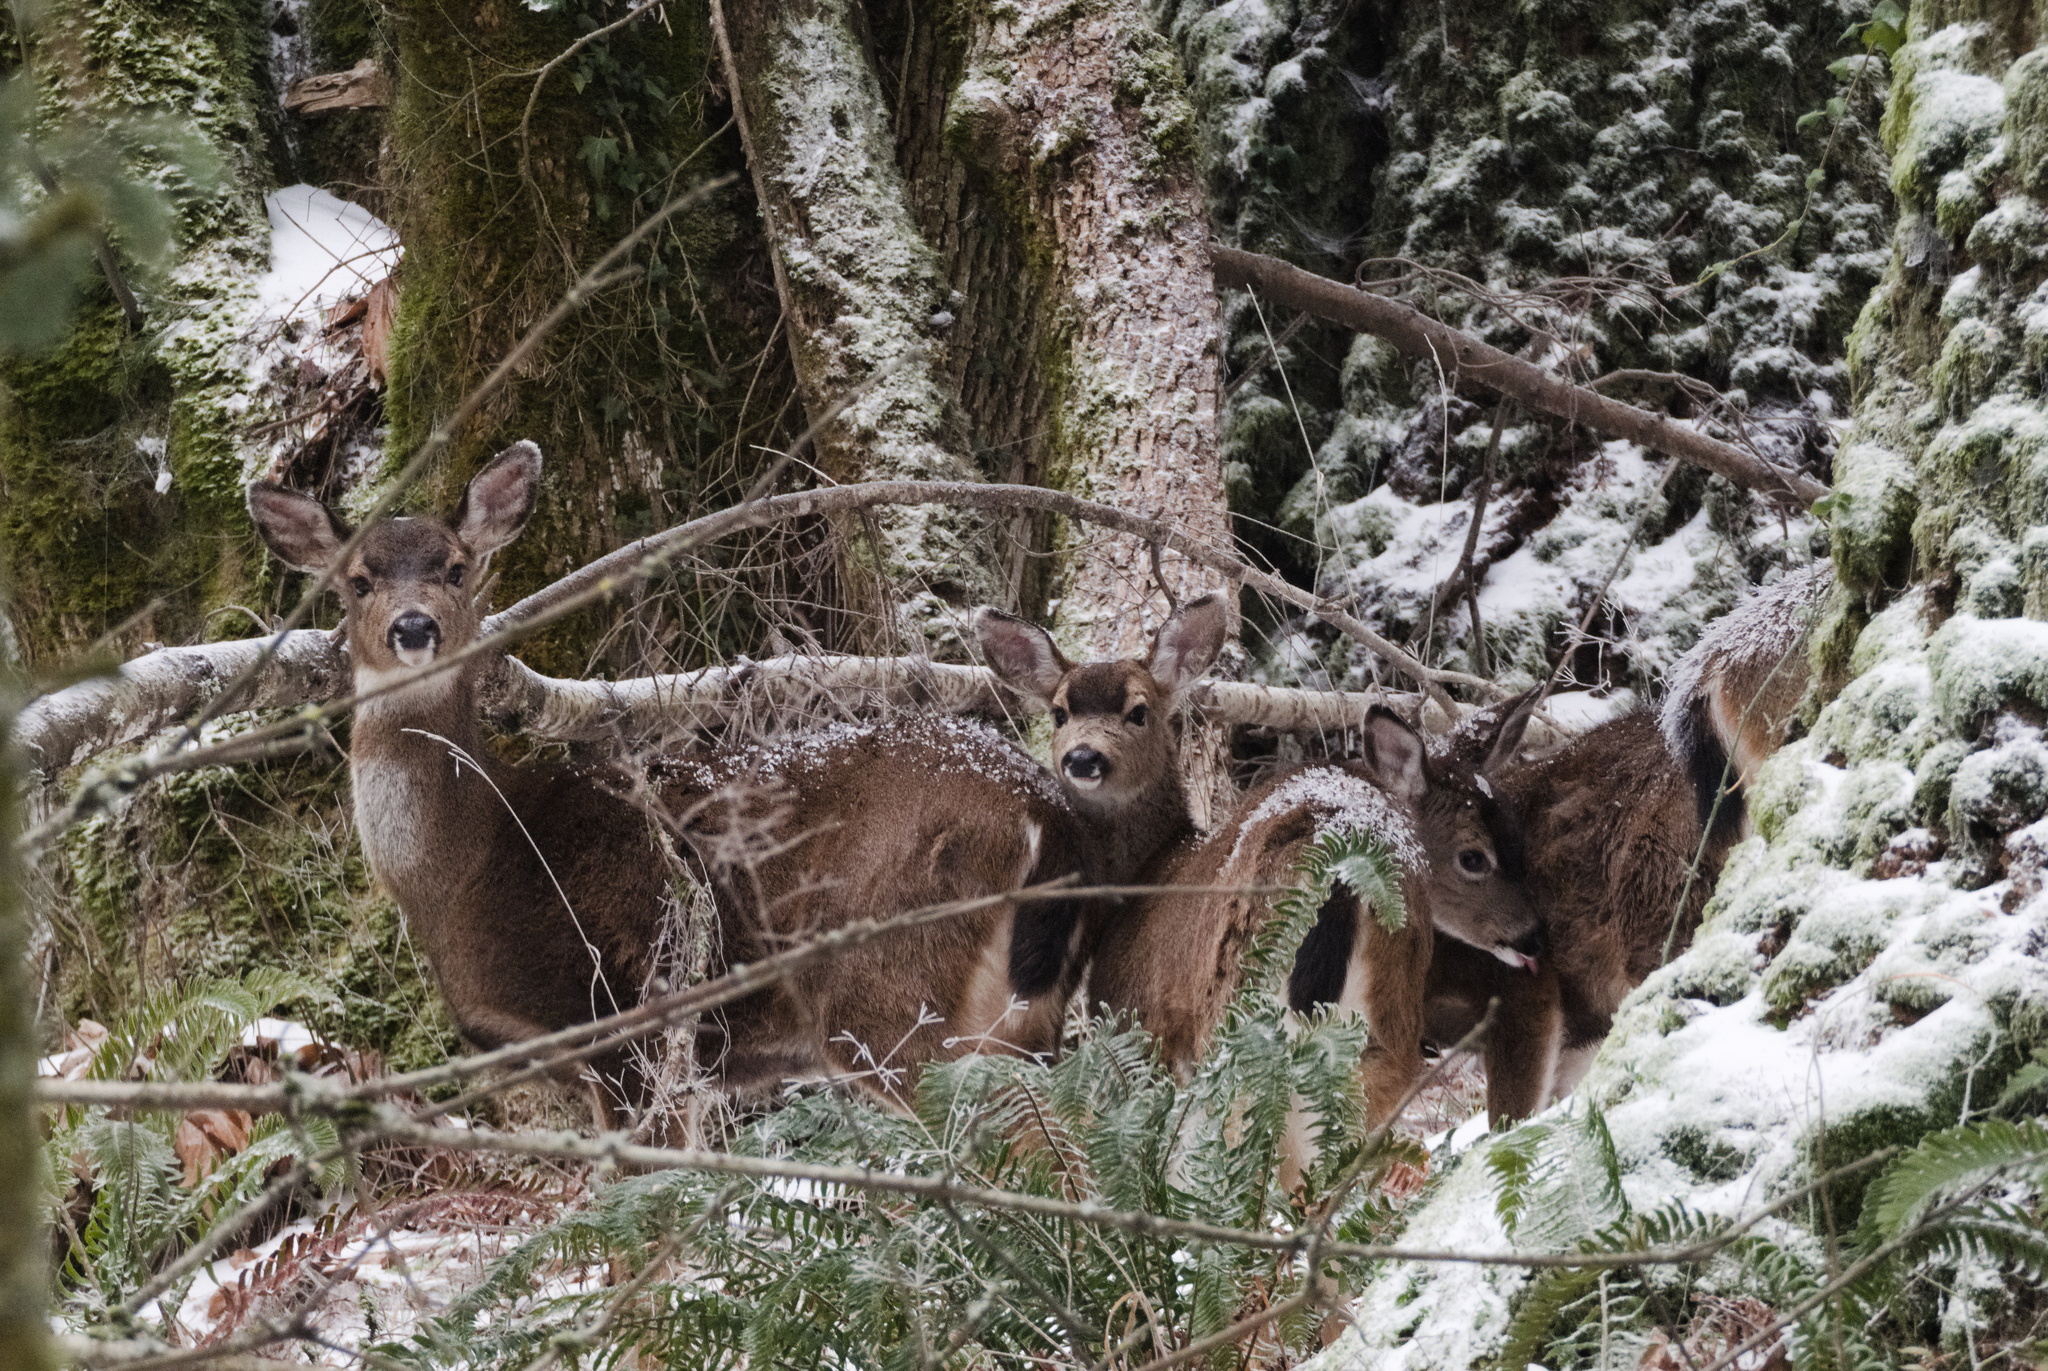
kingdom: Animalia
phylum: Chordata
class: Mammalia
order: Artiodactyla
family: Cervidae
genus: Odocoileus
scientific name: Odocoileus hemionus
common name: Mule deer
